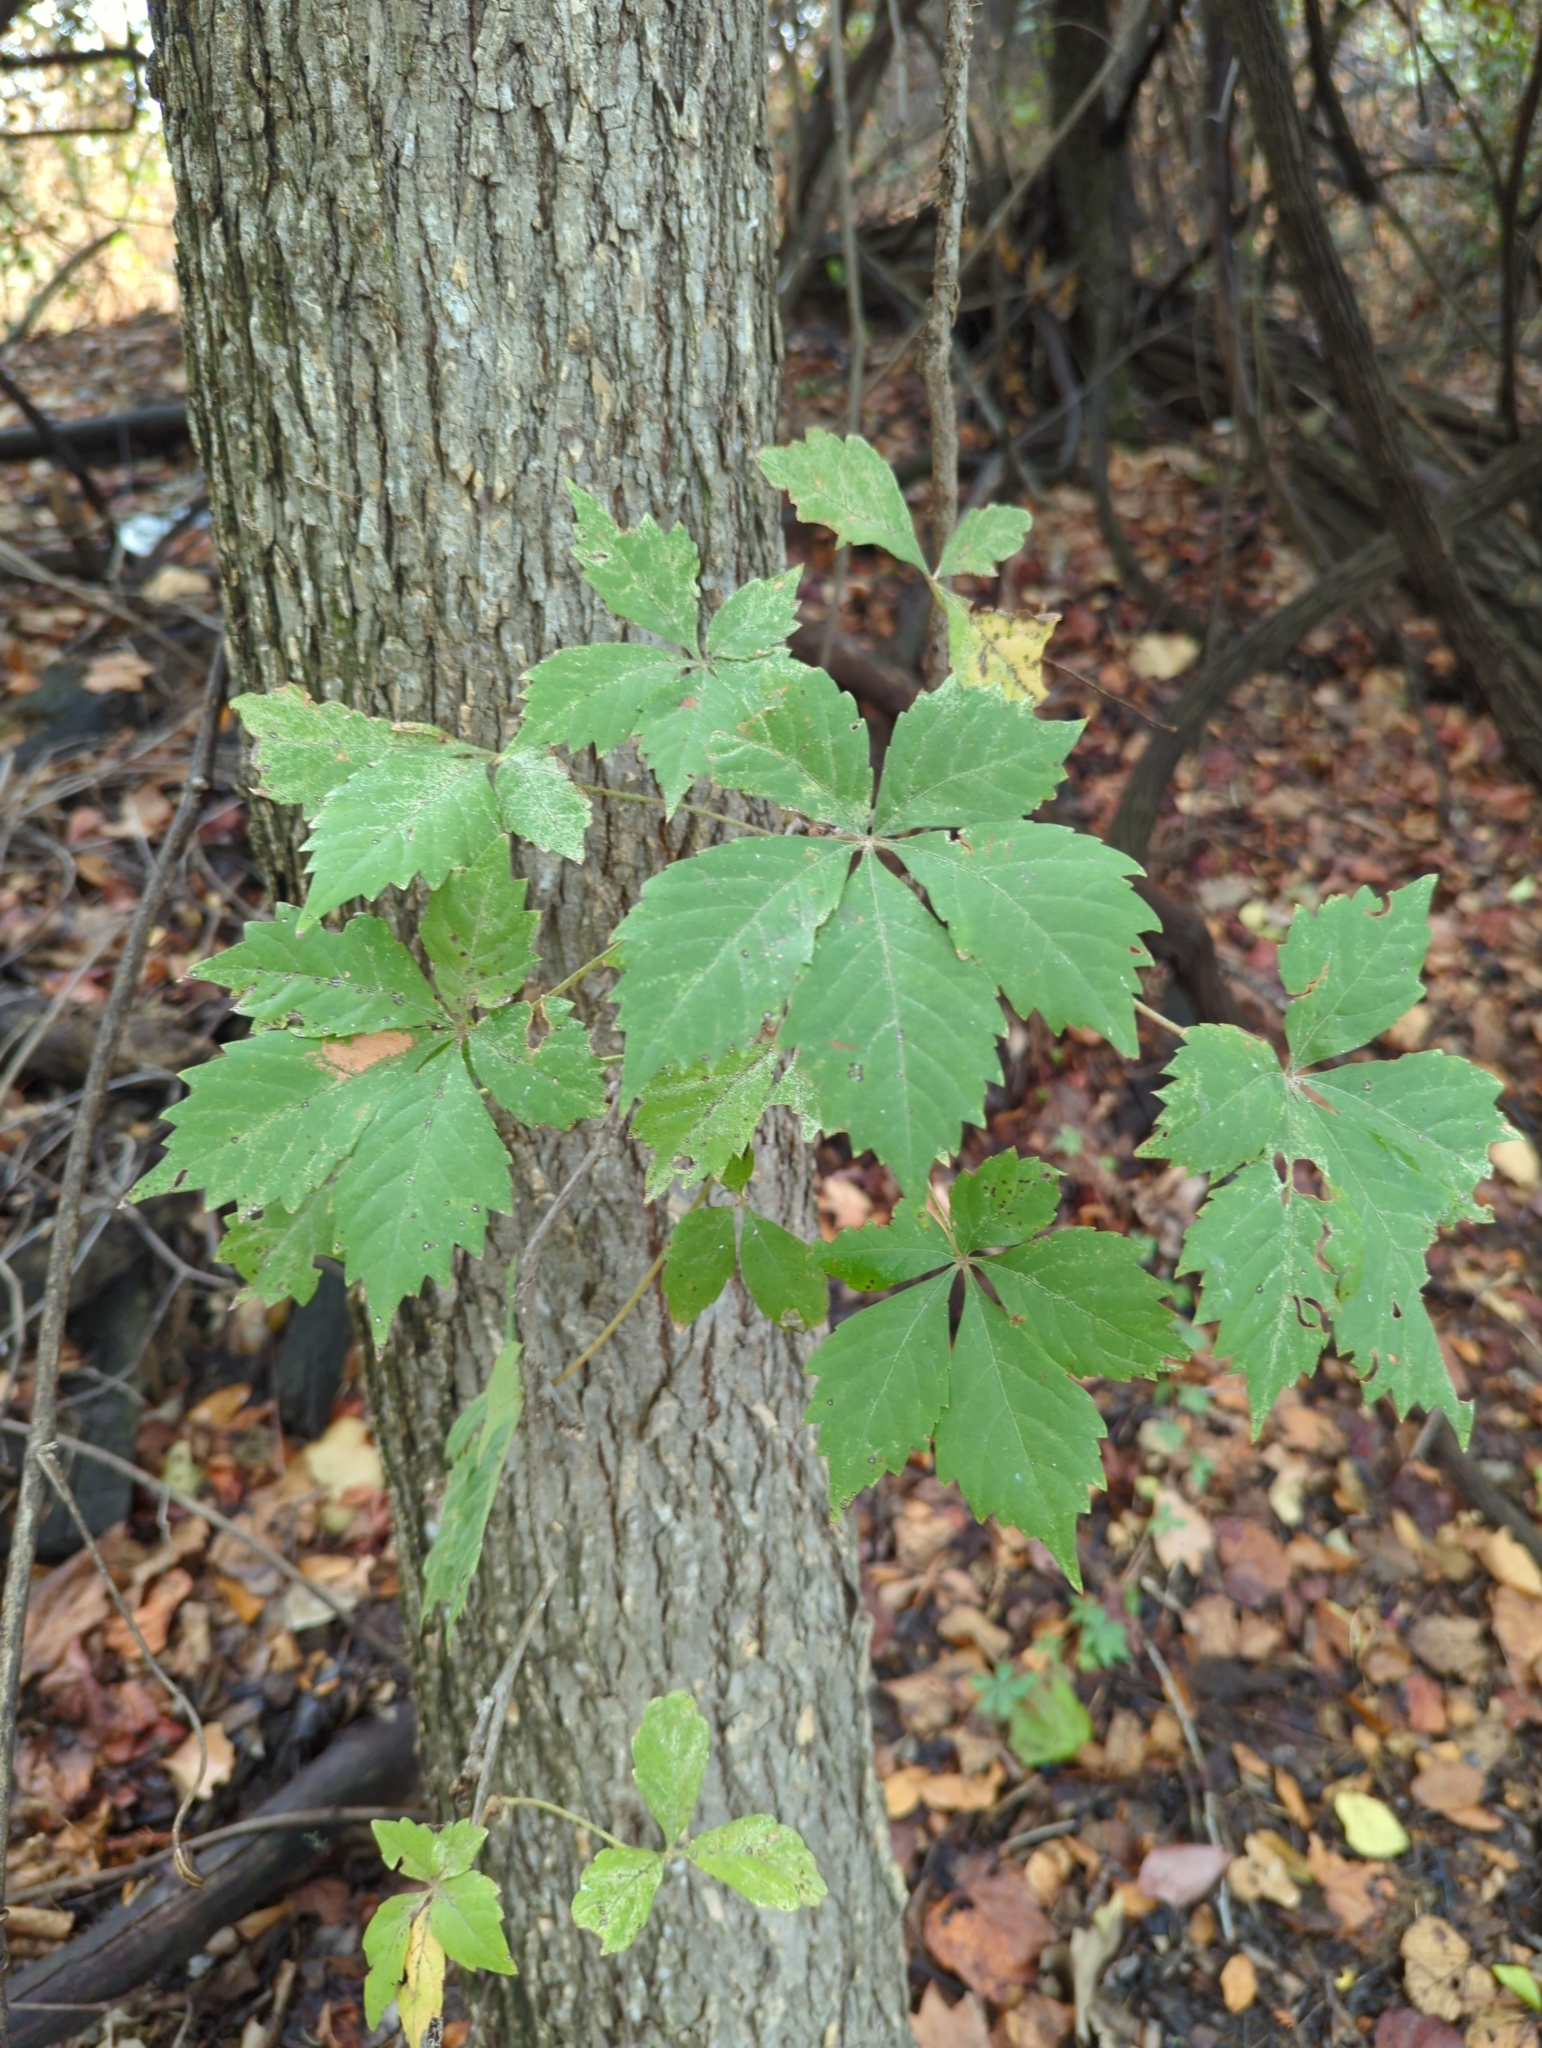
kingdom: Plantae
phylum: Tracheophyta
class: Magnoliopsida
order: Vitales
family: Vitaceae
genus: Parthenocissus
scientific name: Parthenocissus quinquefolia
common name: Virginia-creeper
